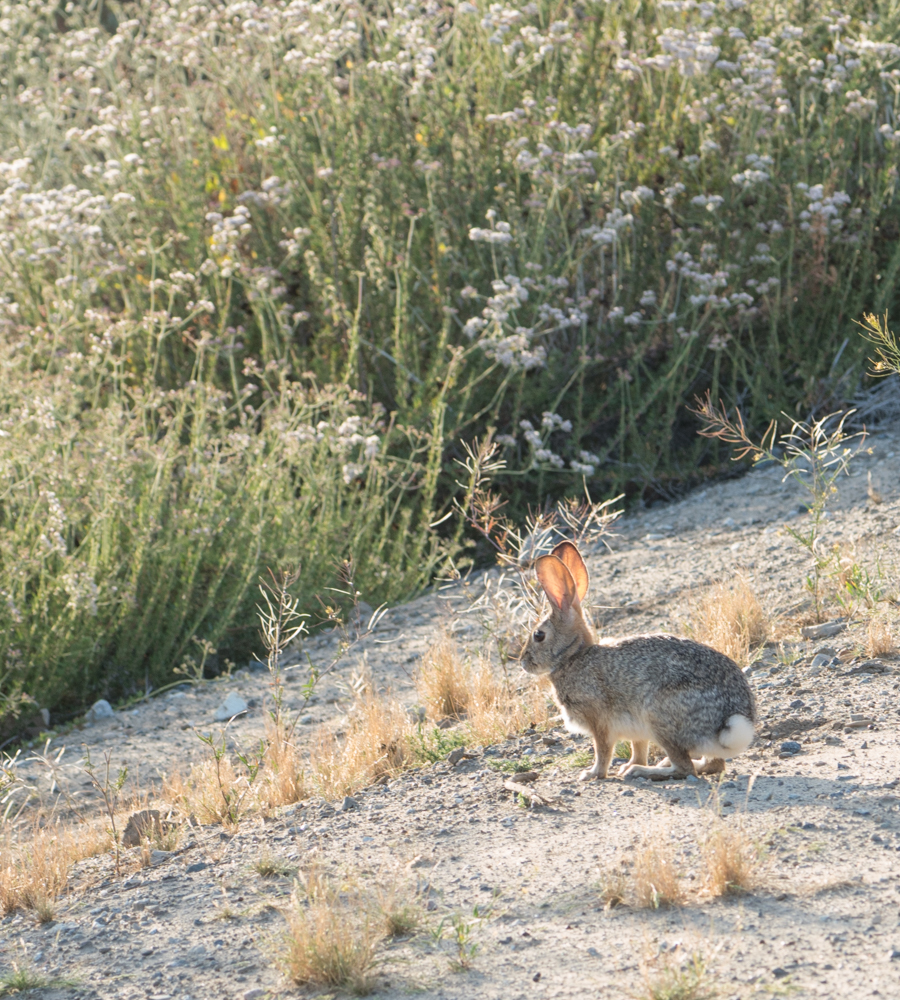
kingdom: Animalia
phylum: Chordata
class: Mammalia
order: Lagomorpha
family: Leporidae
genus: Sylvilagus
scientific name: Sylvilagus audubonii
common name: Desert cottontail
